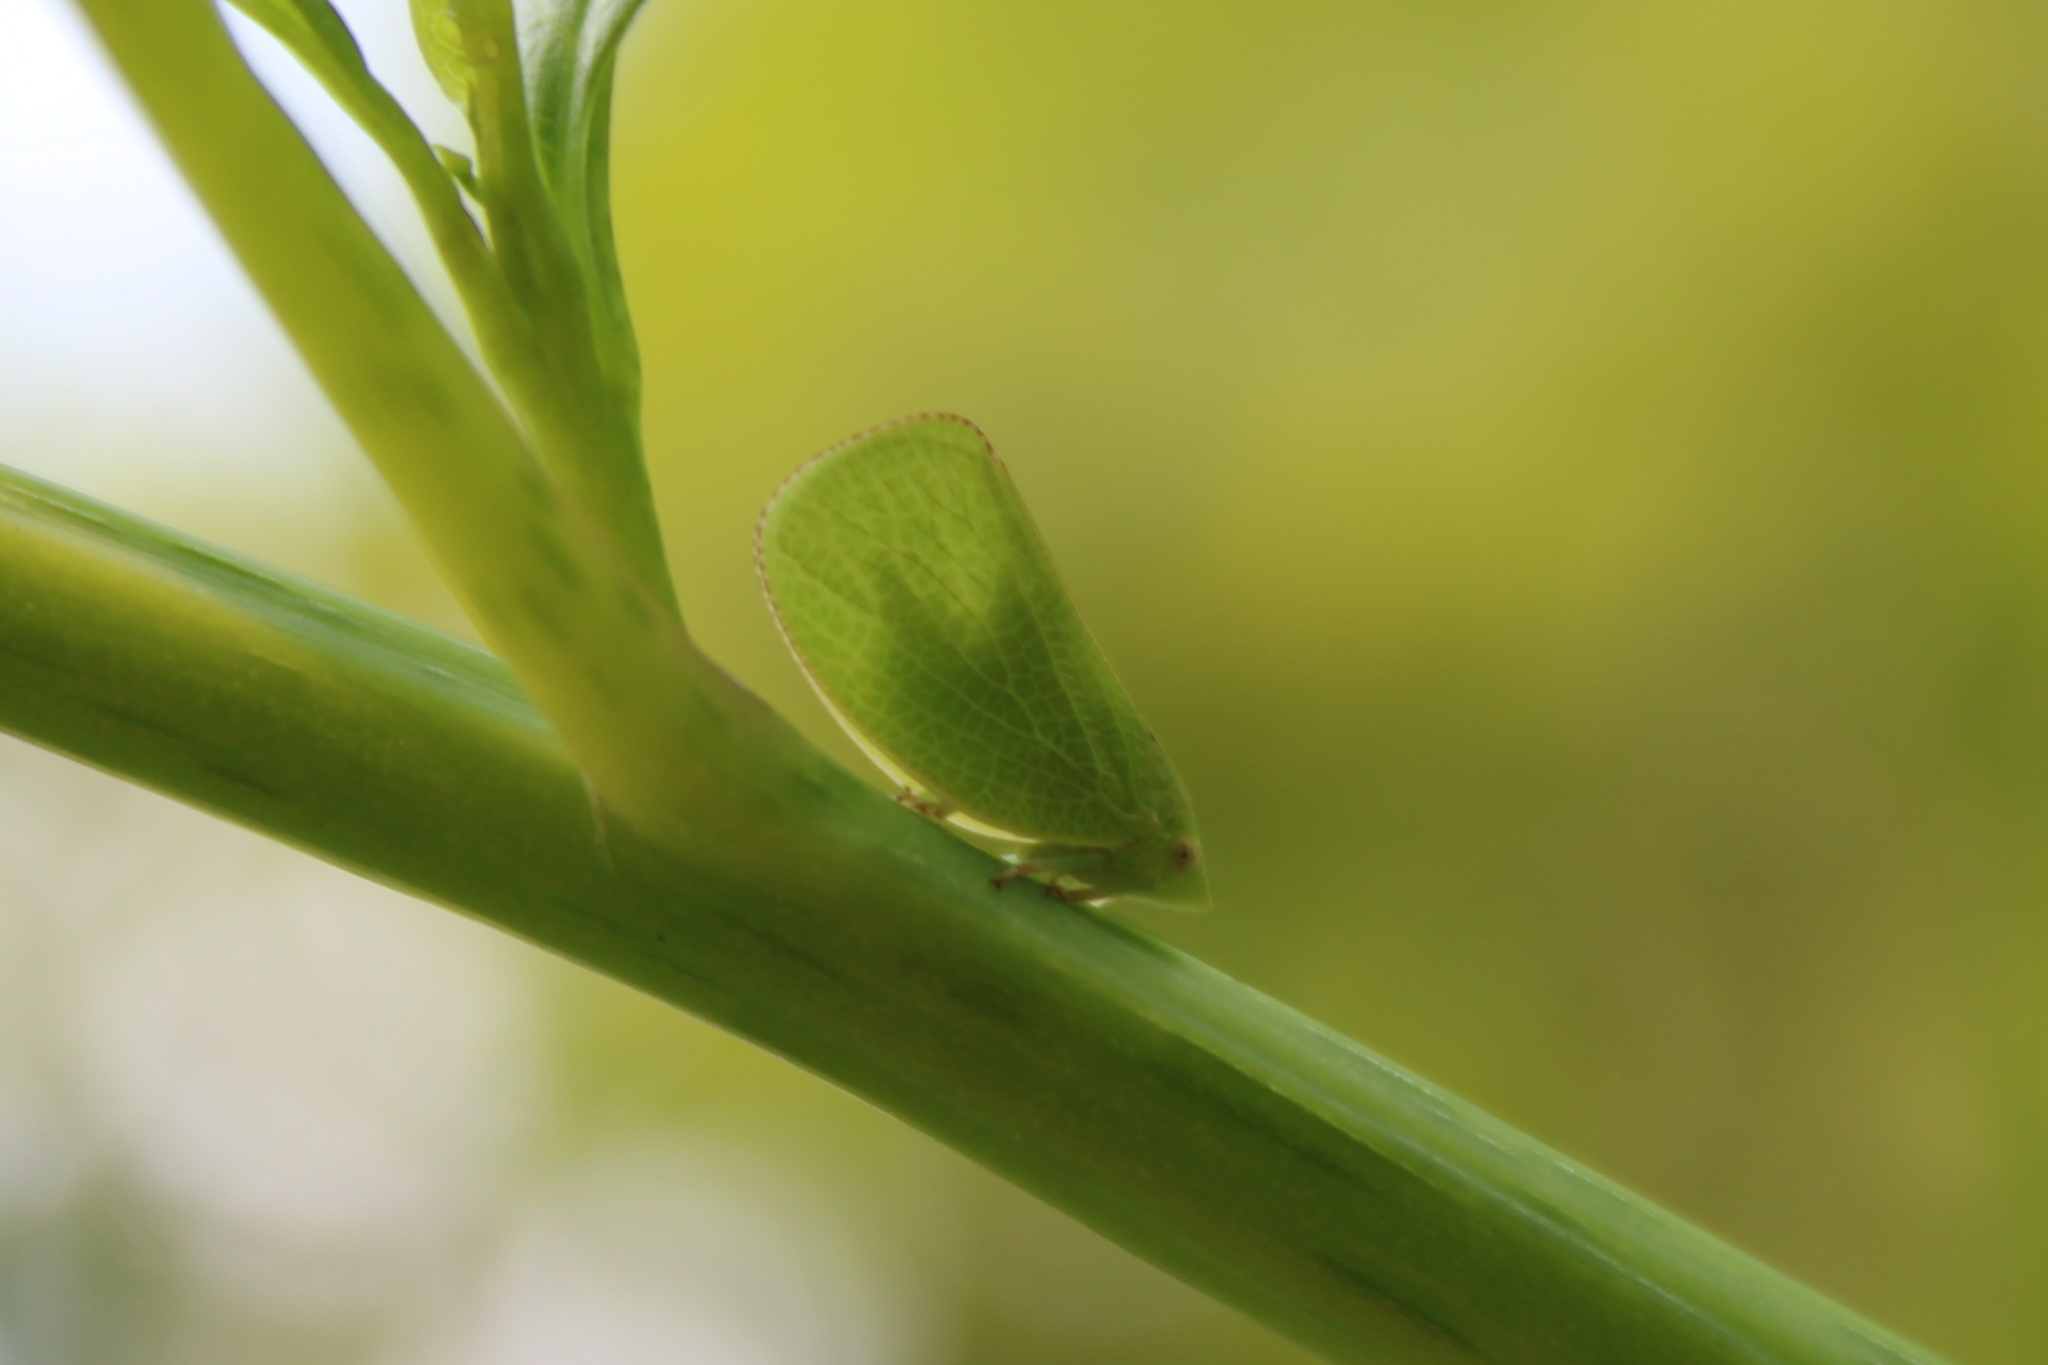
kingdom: Animalia
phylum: Arthropoda
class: Insecta
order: Hemiptera
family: Acanaloniidae
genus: Acanalonia
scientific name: Acanalonia conica
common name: Green cone-headed planthopper
